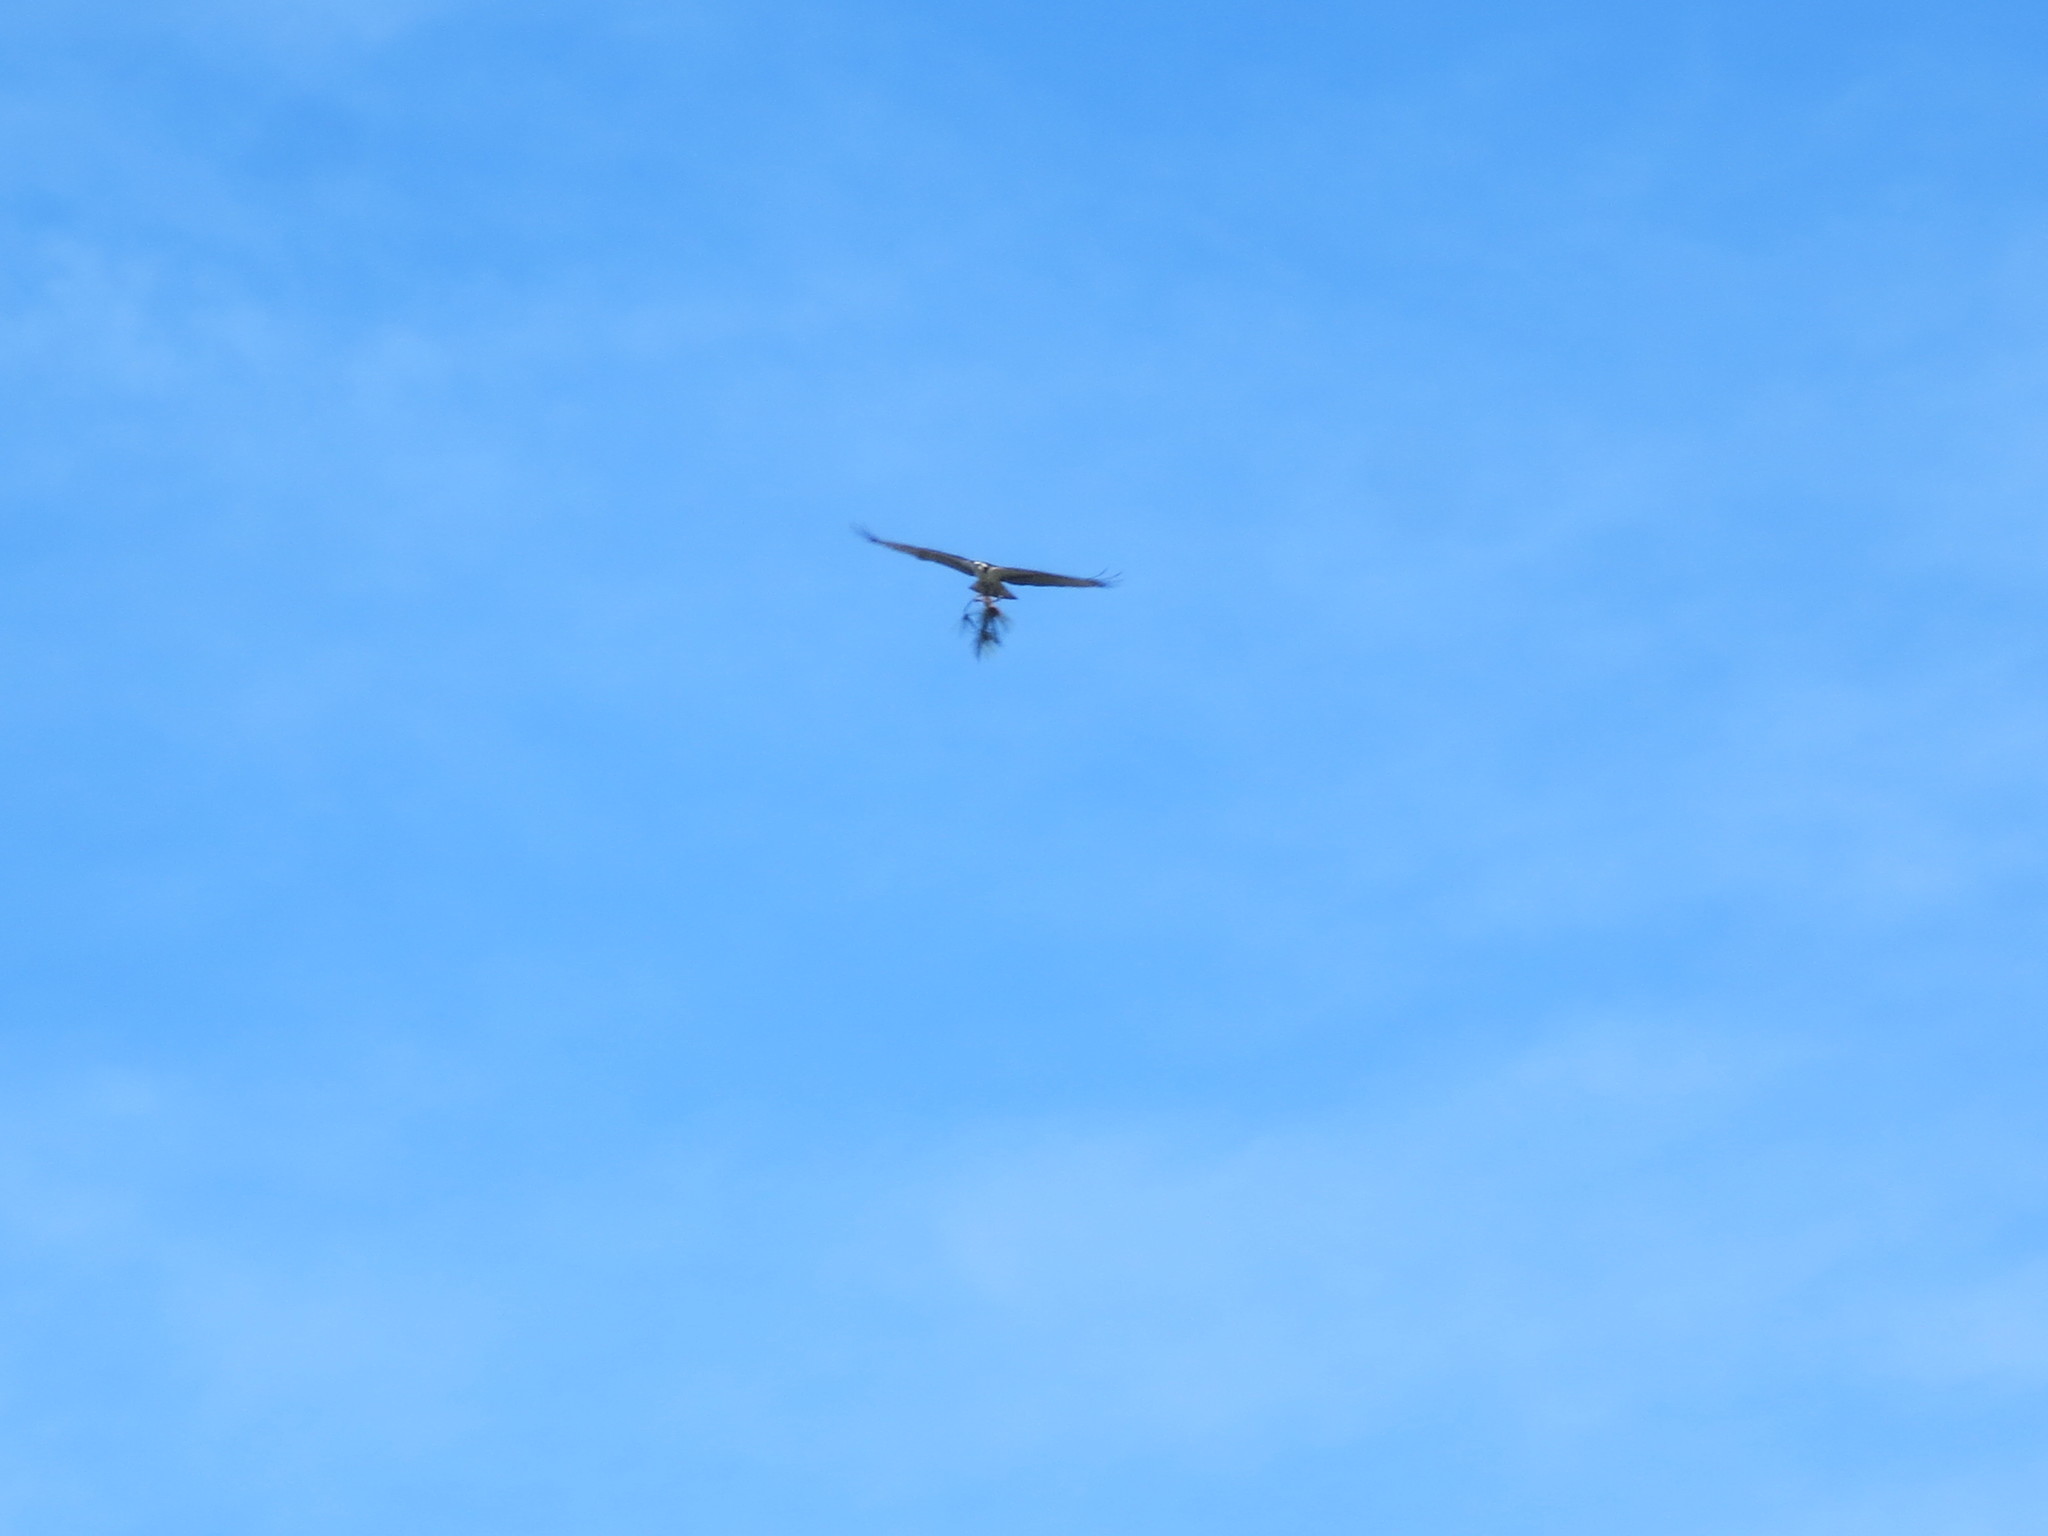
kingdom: Animalia
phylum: Chordata
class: Aves
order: Accipitriformes
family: Pandionidae
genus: Pandion
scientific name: Pandion haliaetus
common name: Osprey
